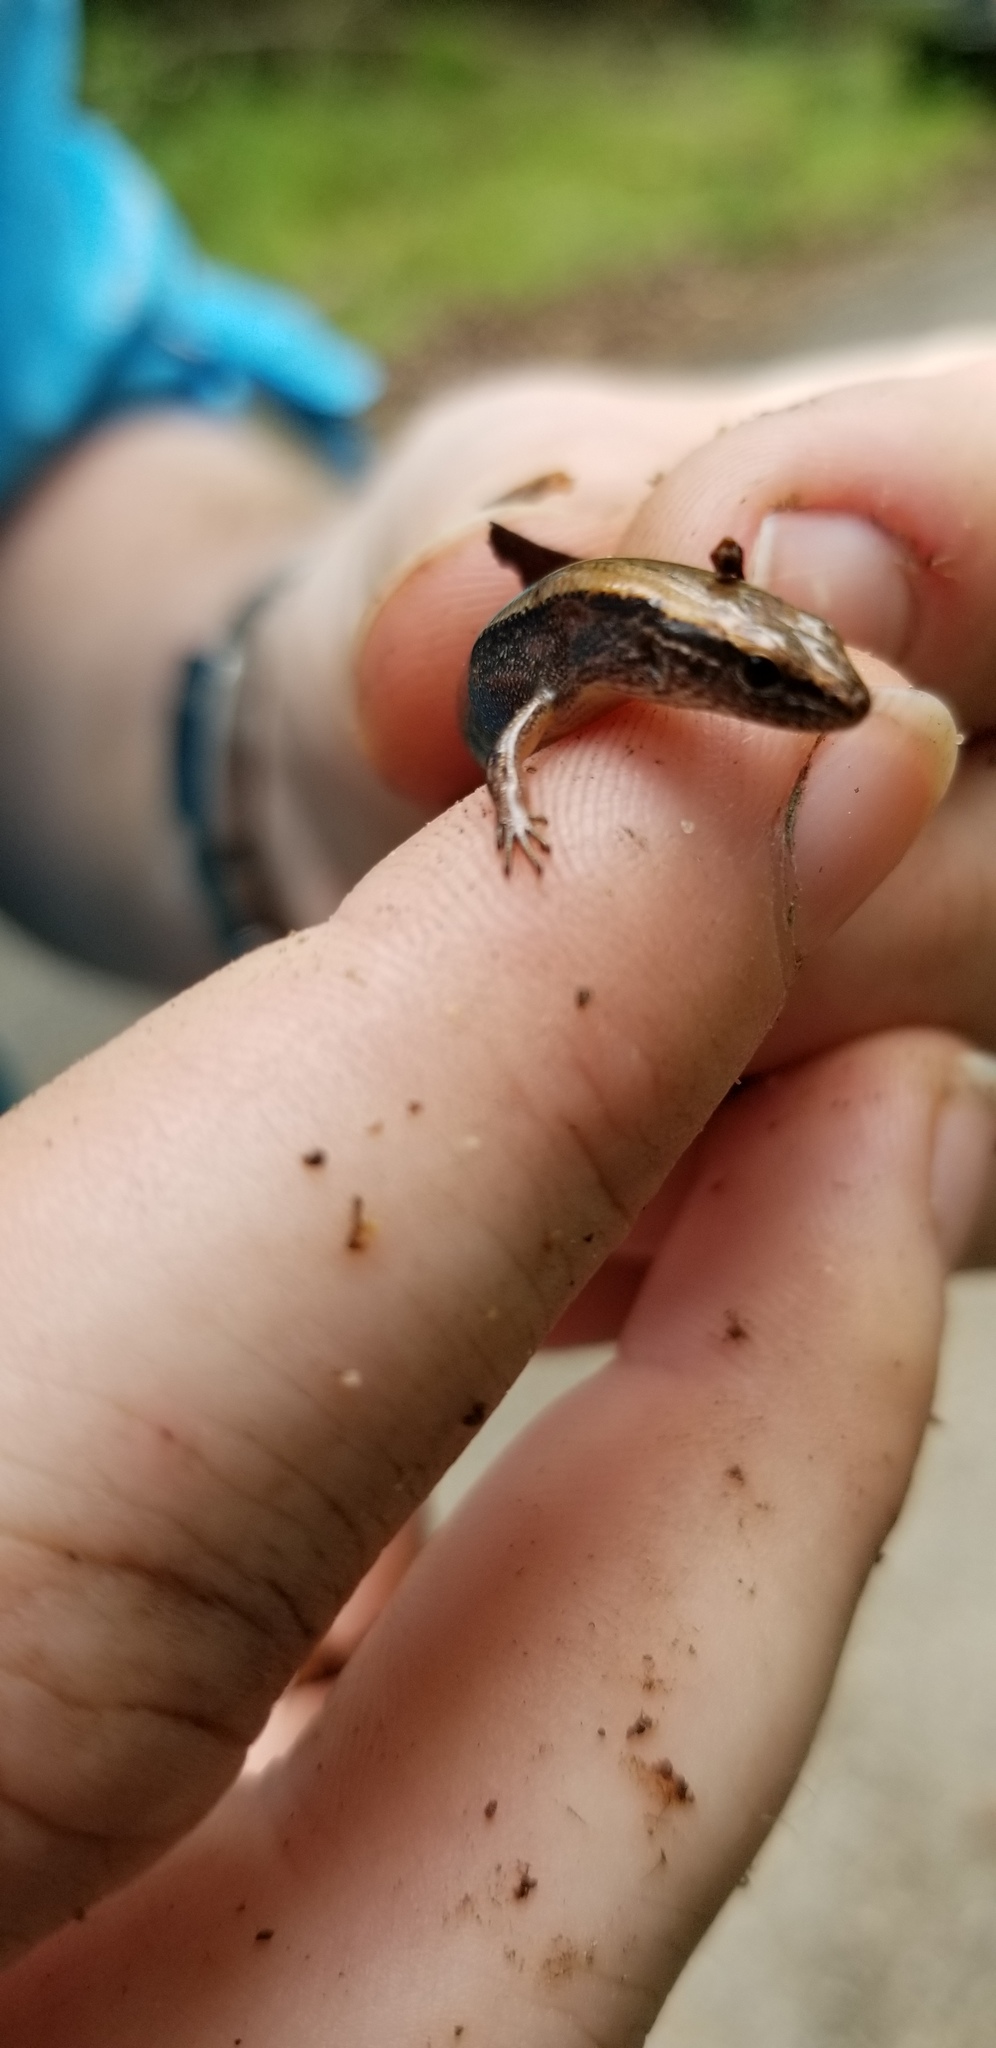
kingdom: Animalia
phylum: Chordata
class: Squamata
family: Scincidae
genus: Scincella
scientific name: Scincella lateralis
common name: Ground skink
